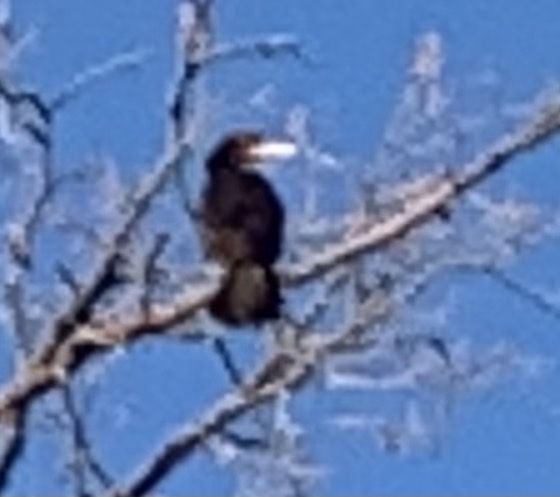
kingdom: Animalia
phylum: Chordata
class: Aves
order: Suliformes
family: Phalacrocoracidae
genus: Phalacrocorax
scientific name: Phalacrocorax carbo
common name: Great cormorant
